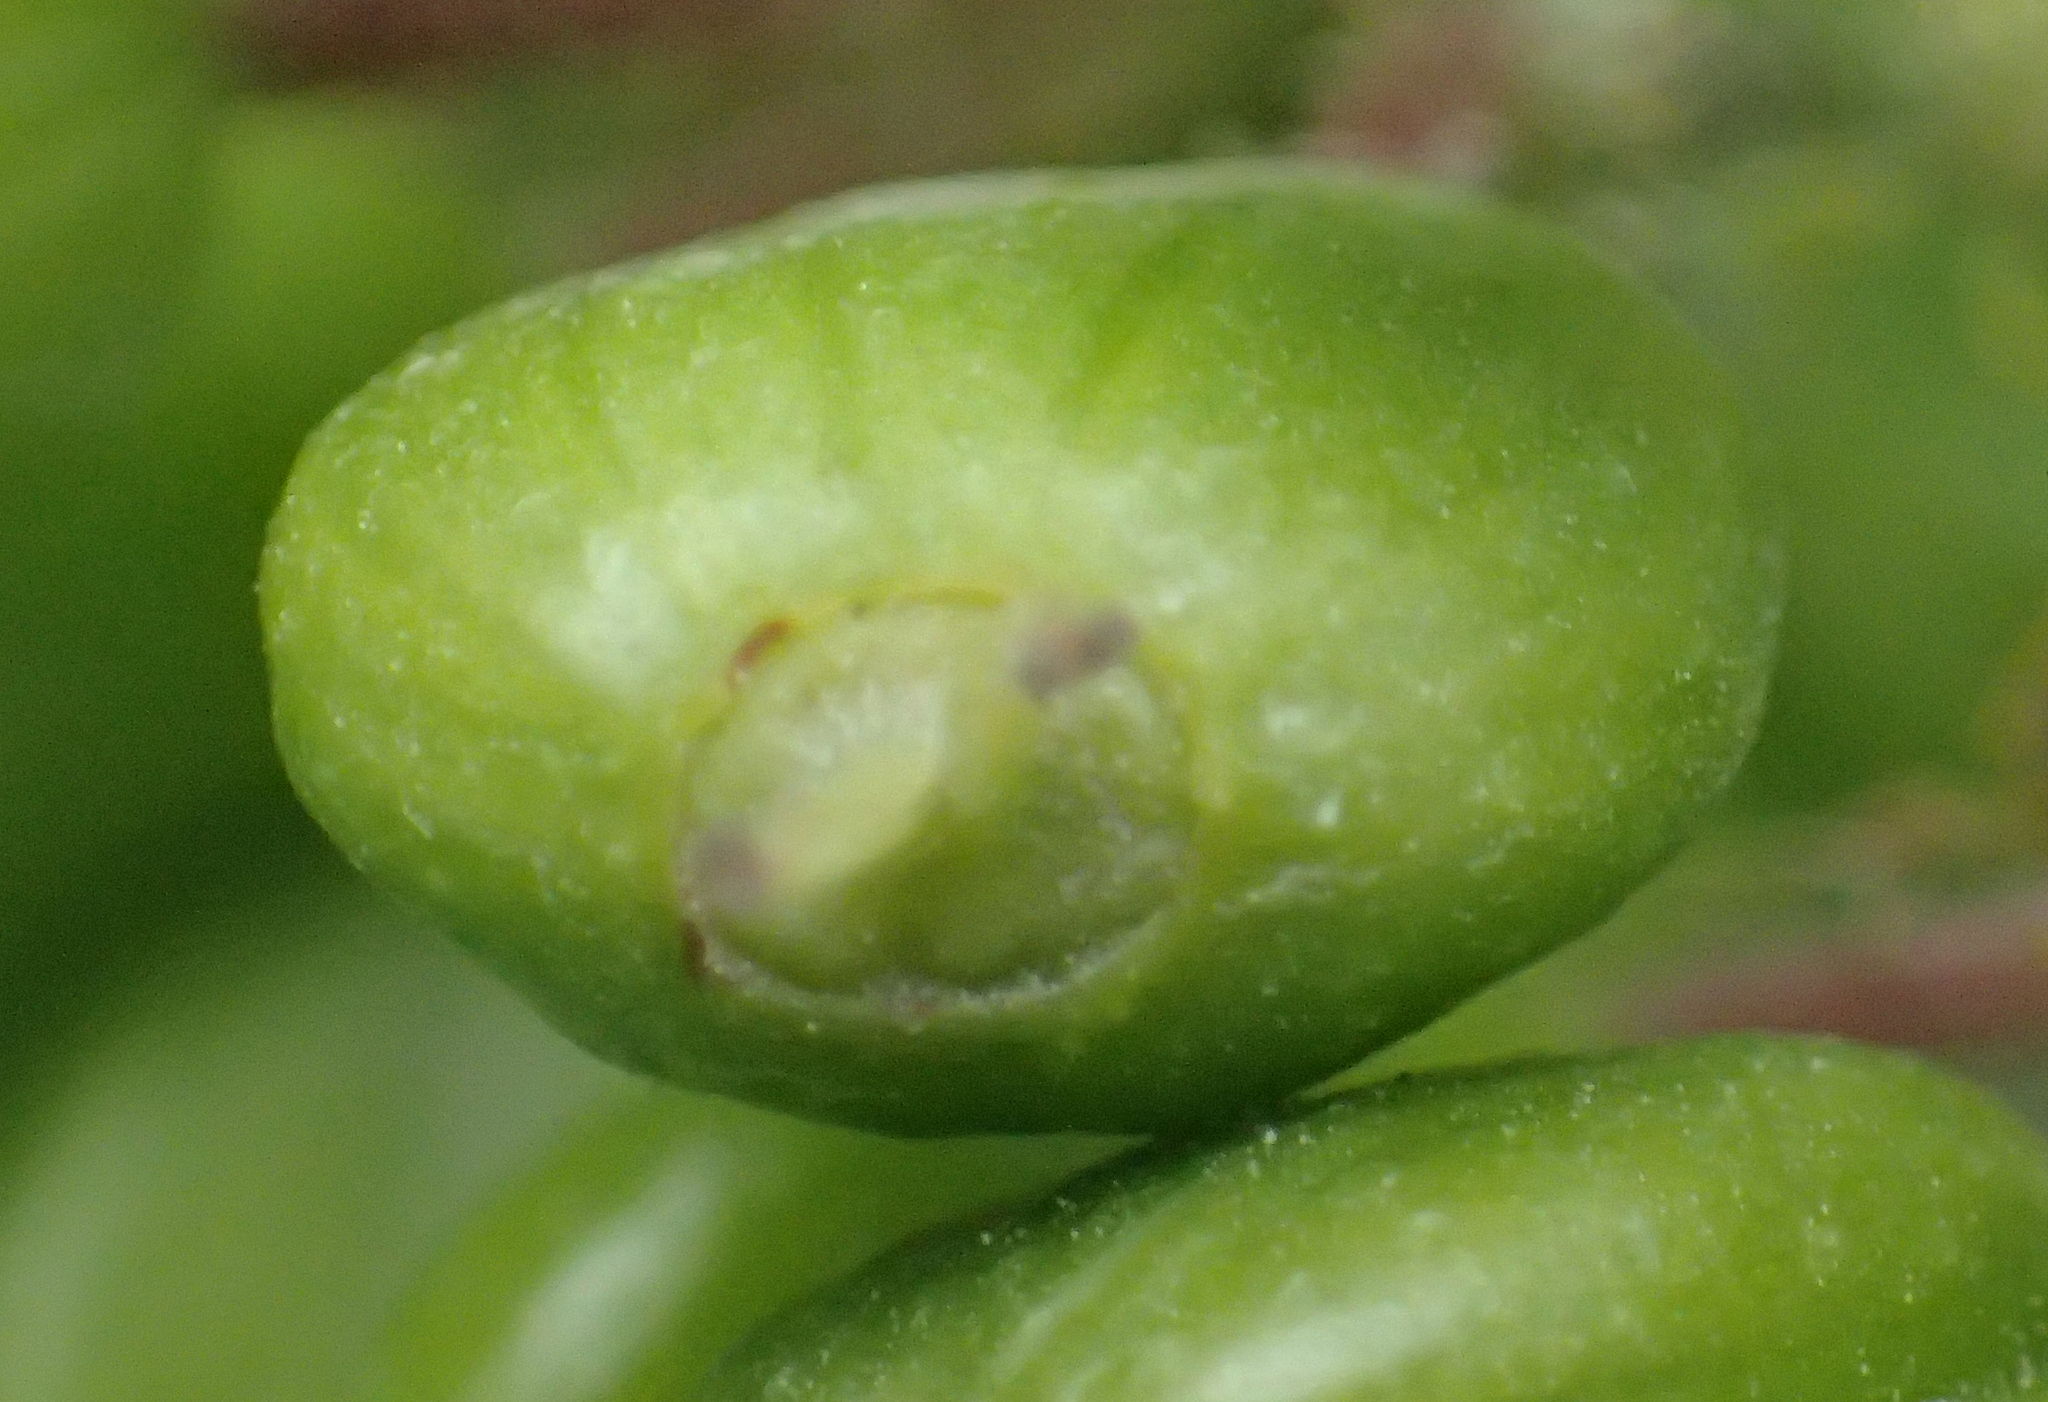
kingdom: Plantae
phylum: Tracheophyta
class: Magnoliopsida
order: Apiales
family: Araliaceae
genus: Oplopanax
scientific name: Oplopanax horridus
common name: Devil's walking-stick
